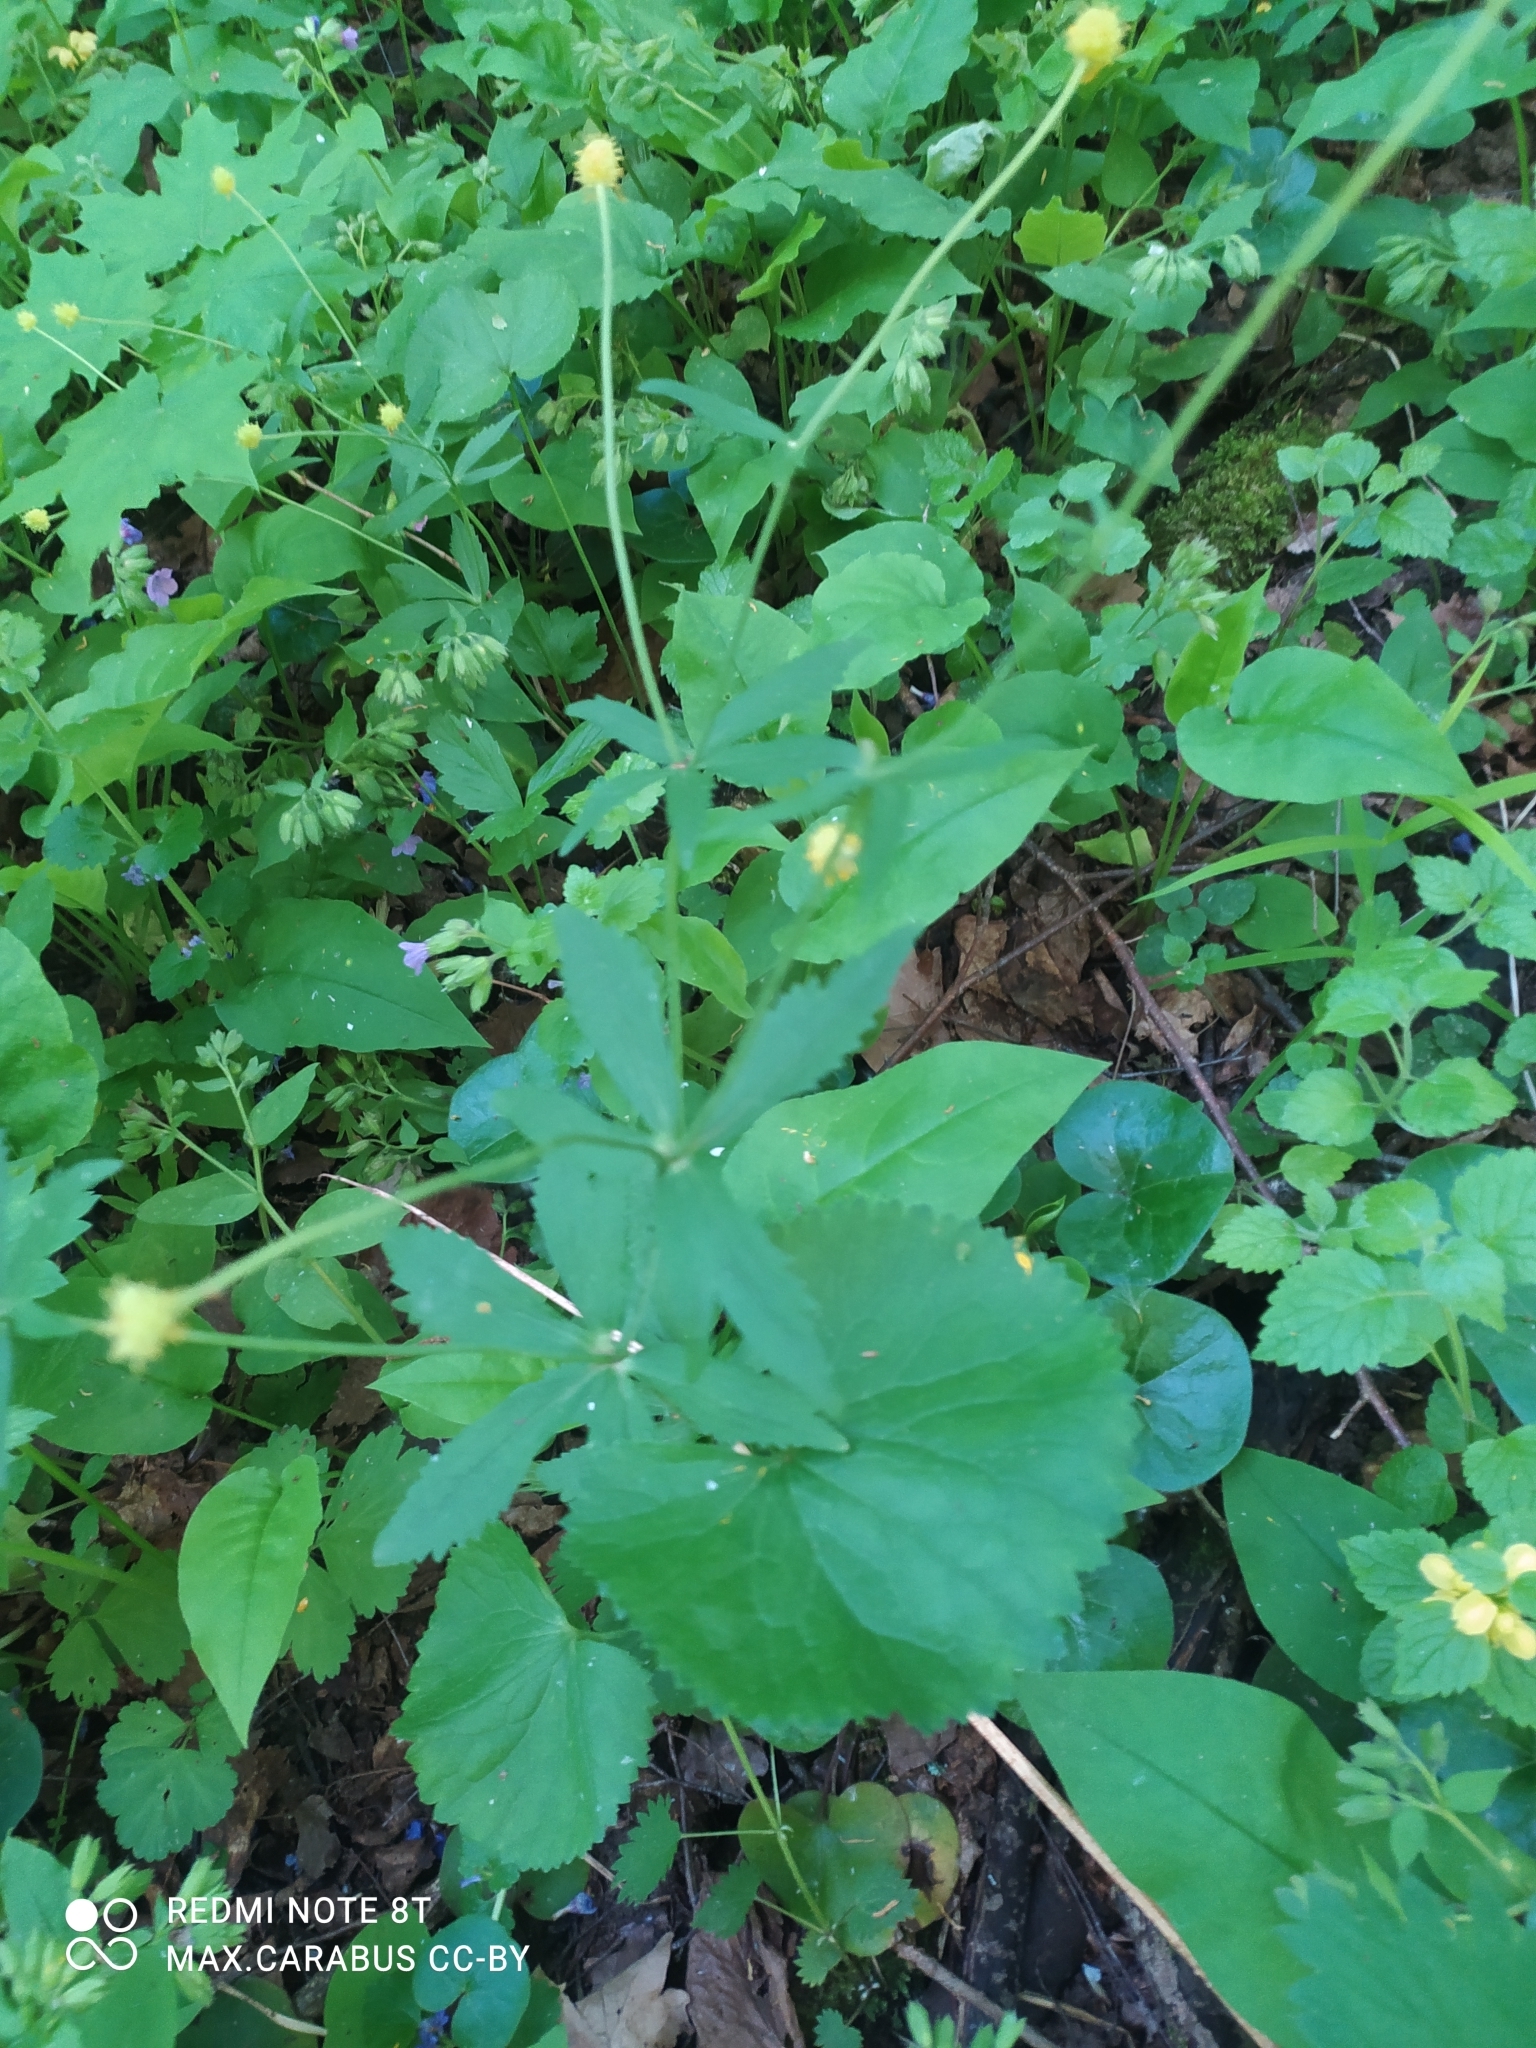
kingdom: Plantae
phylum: Tracheophyta
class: Magnoliopsida
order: Ranunculales
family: Ranunculaceae
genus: Ranunculus
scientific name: Ranunculus cassubicus
